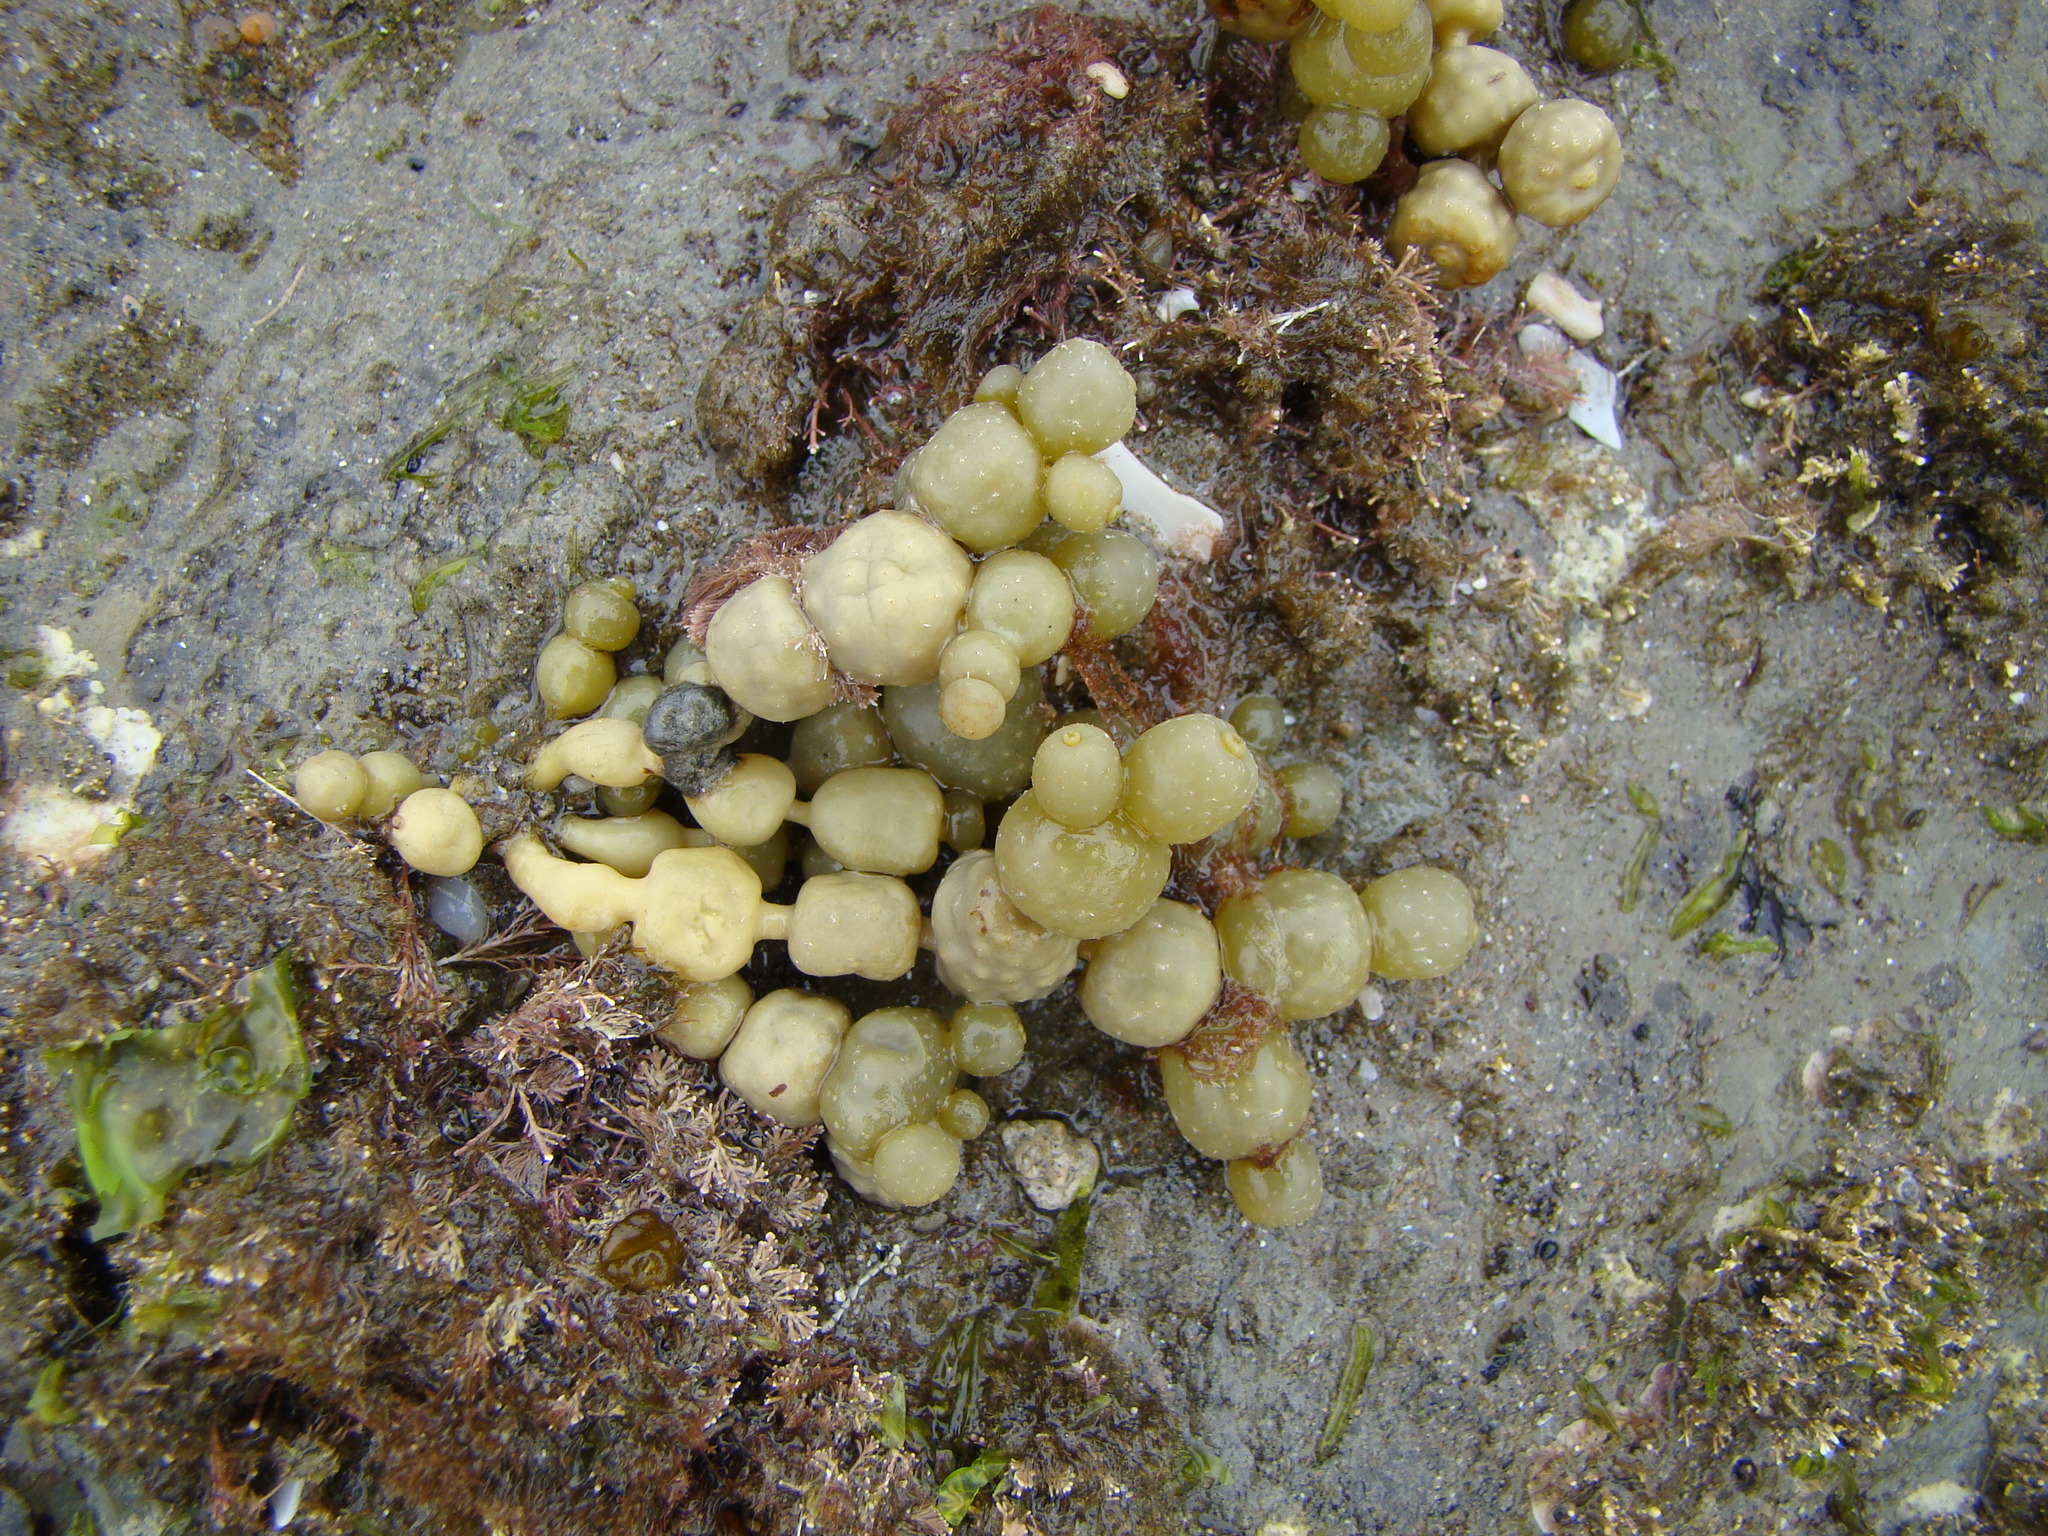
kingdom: Chromista
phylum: Ochrophyta
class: Phaeophyceae
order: Fucales
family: Hormosiraceae
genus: Hormosira
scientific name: Hormosira banksii
